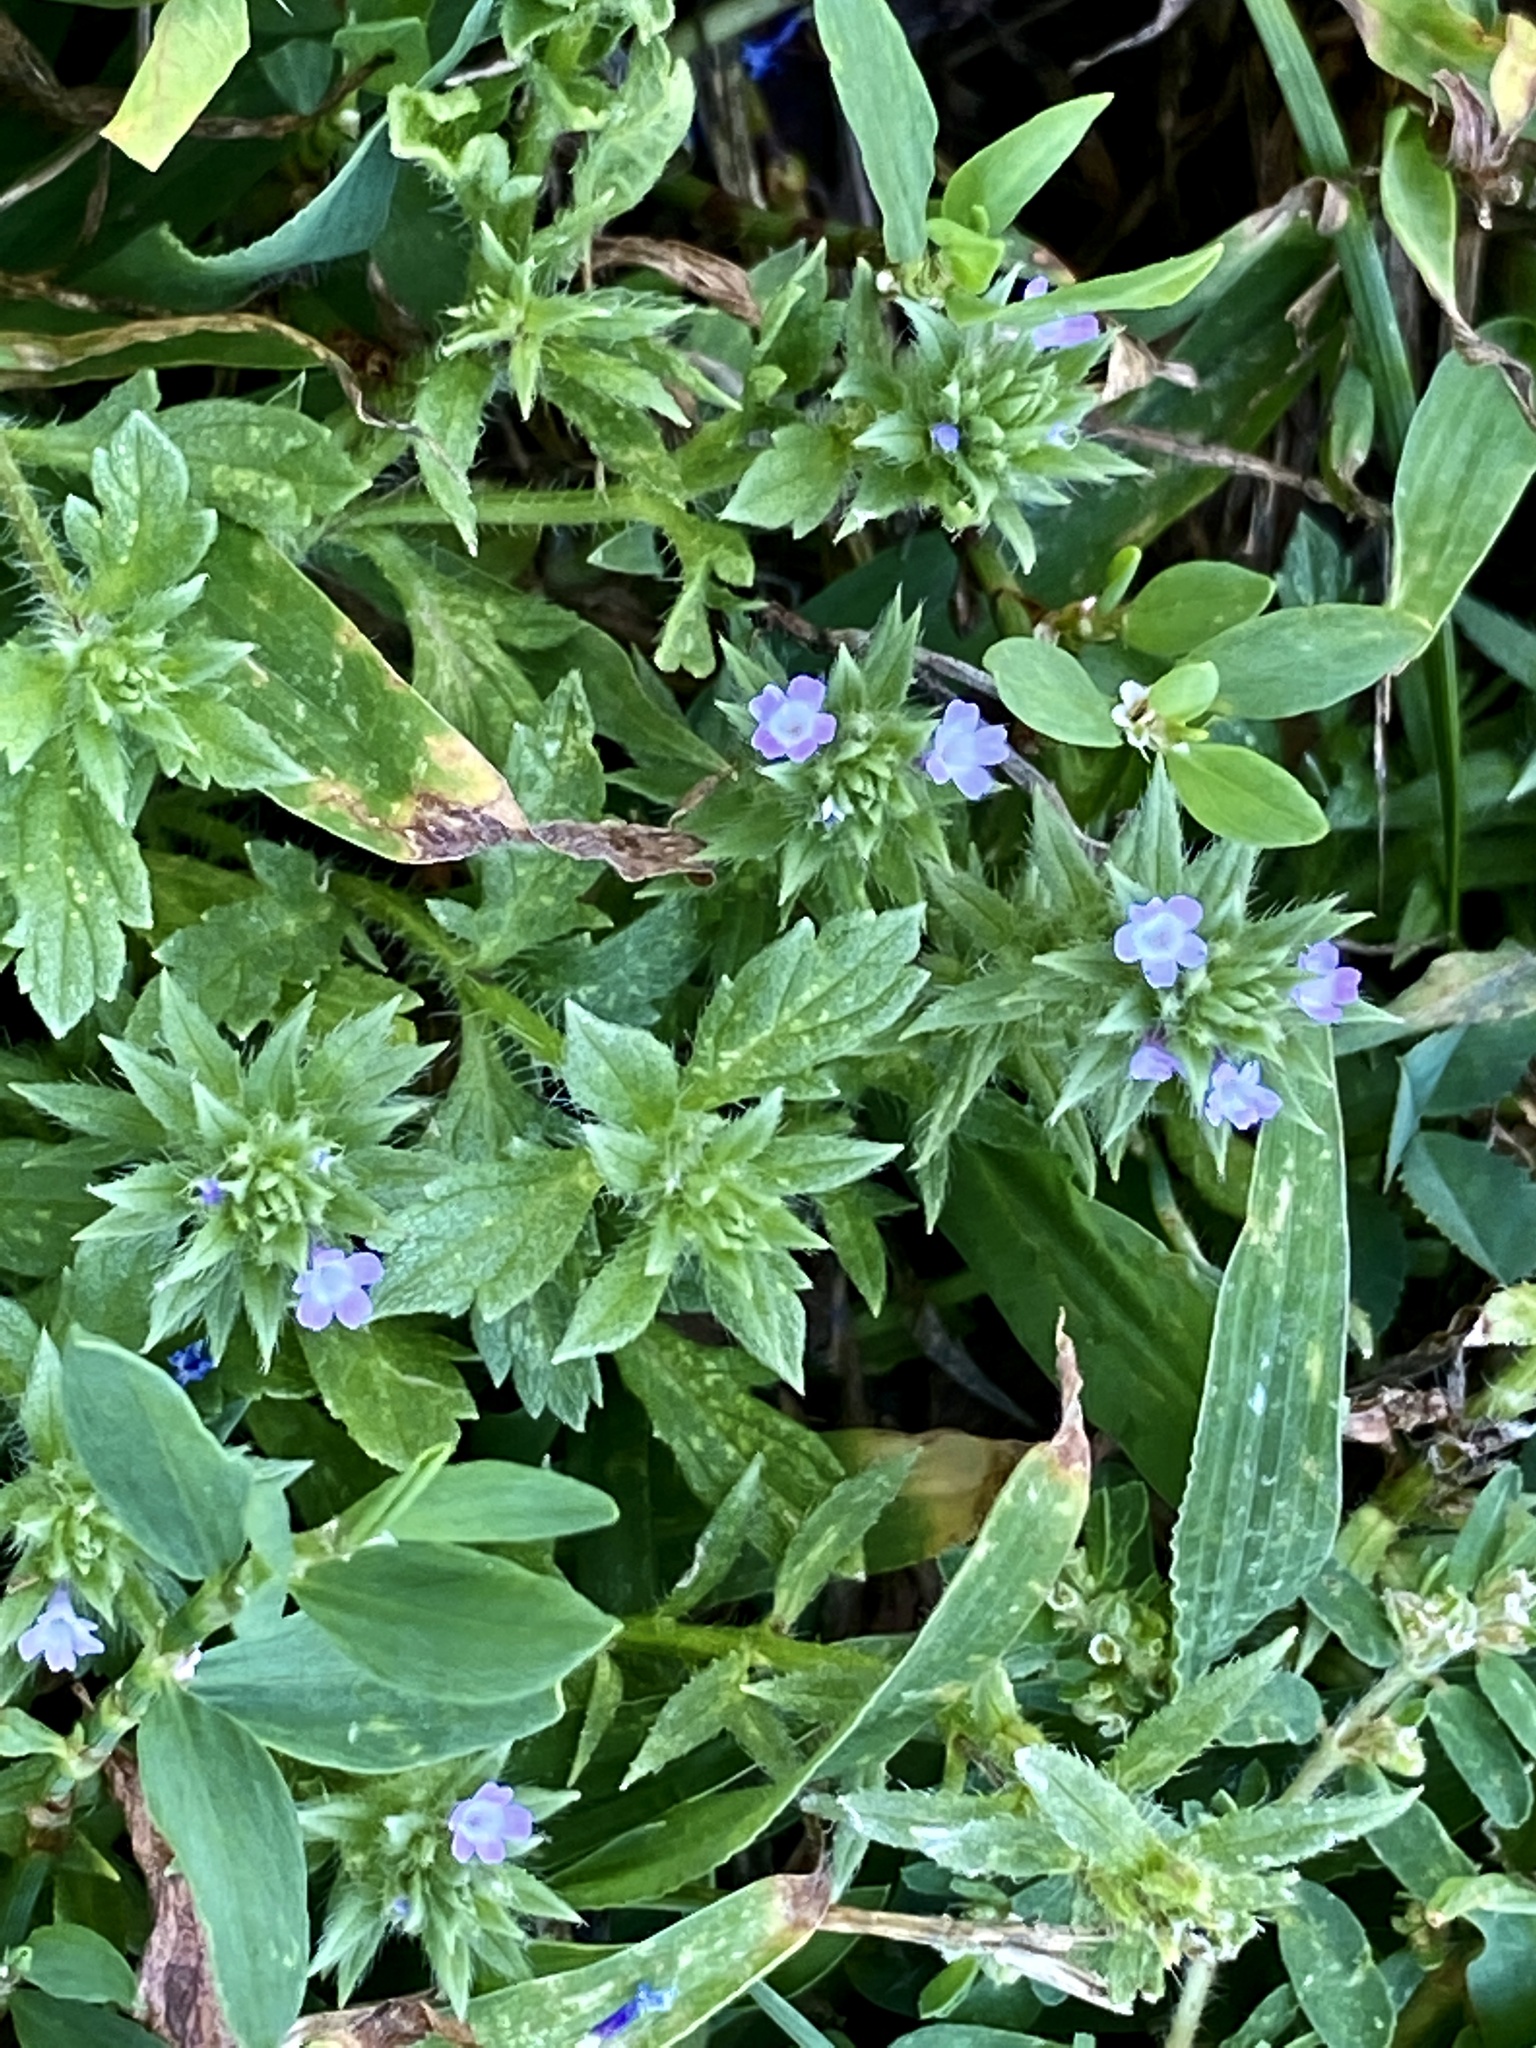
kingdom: Plantae
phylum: Tracheophyta
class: Magnoliopsida
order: Lamiales
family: Verbenaceae
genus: Verbena
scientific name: Verbena bracteata
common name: Bracted vervain
